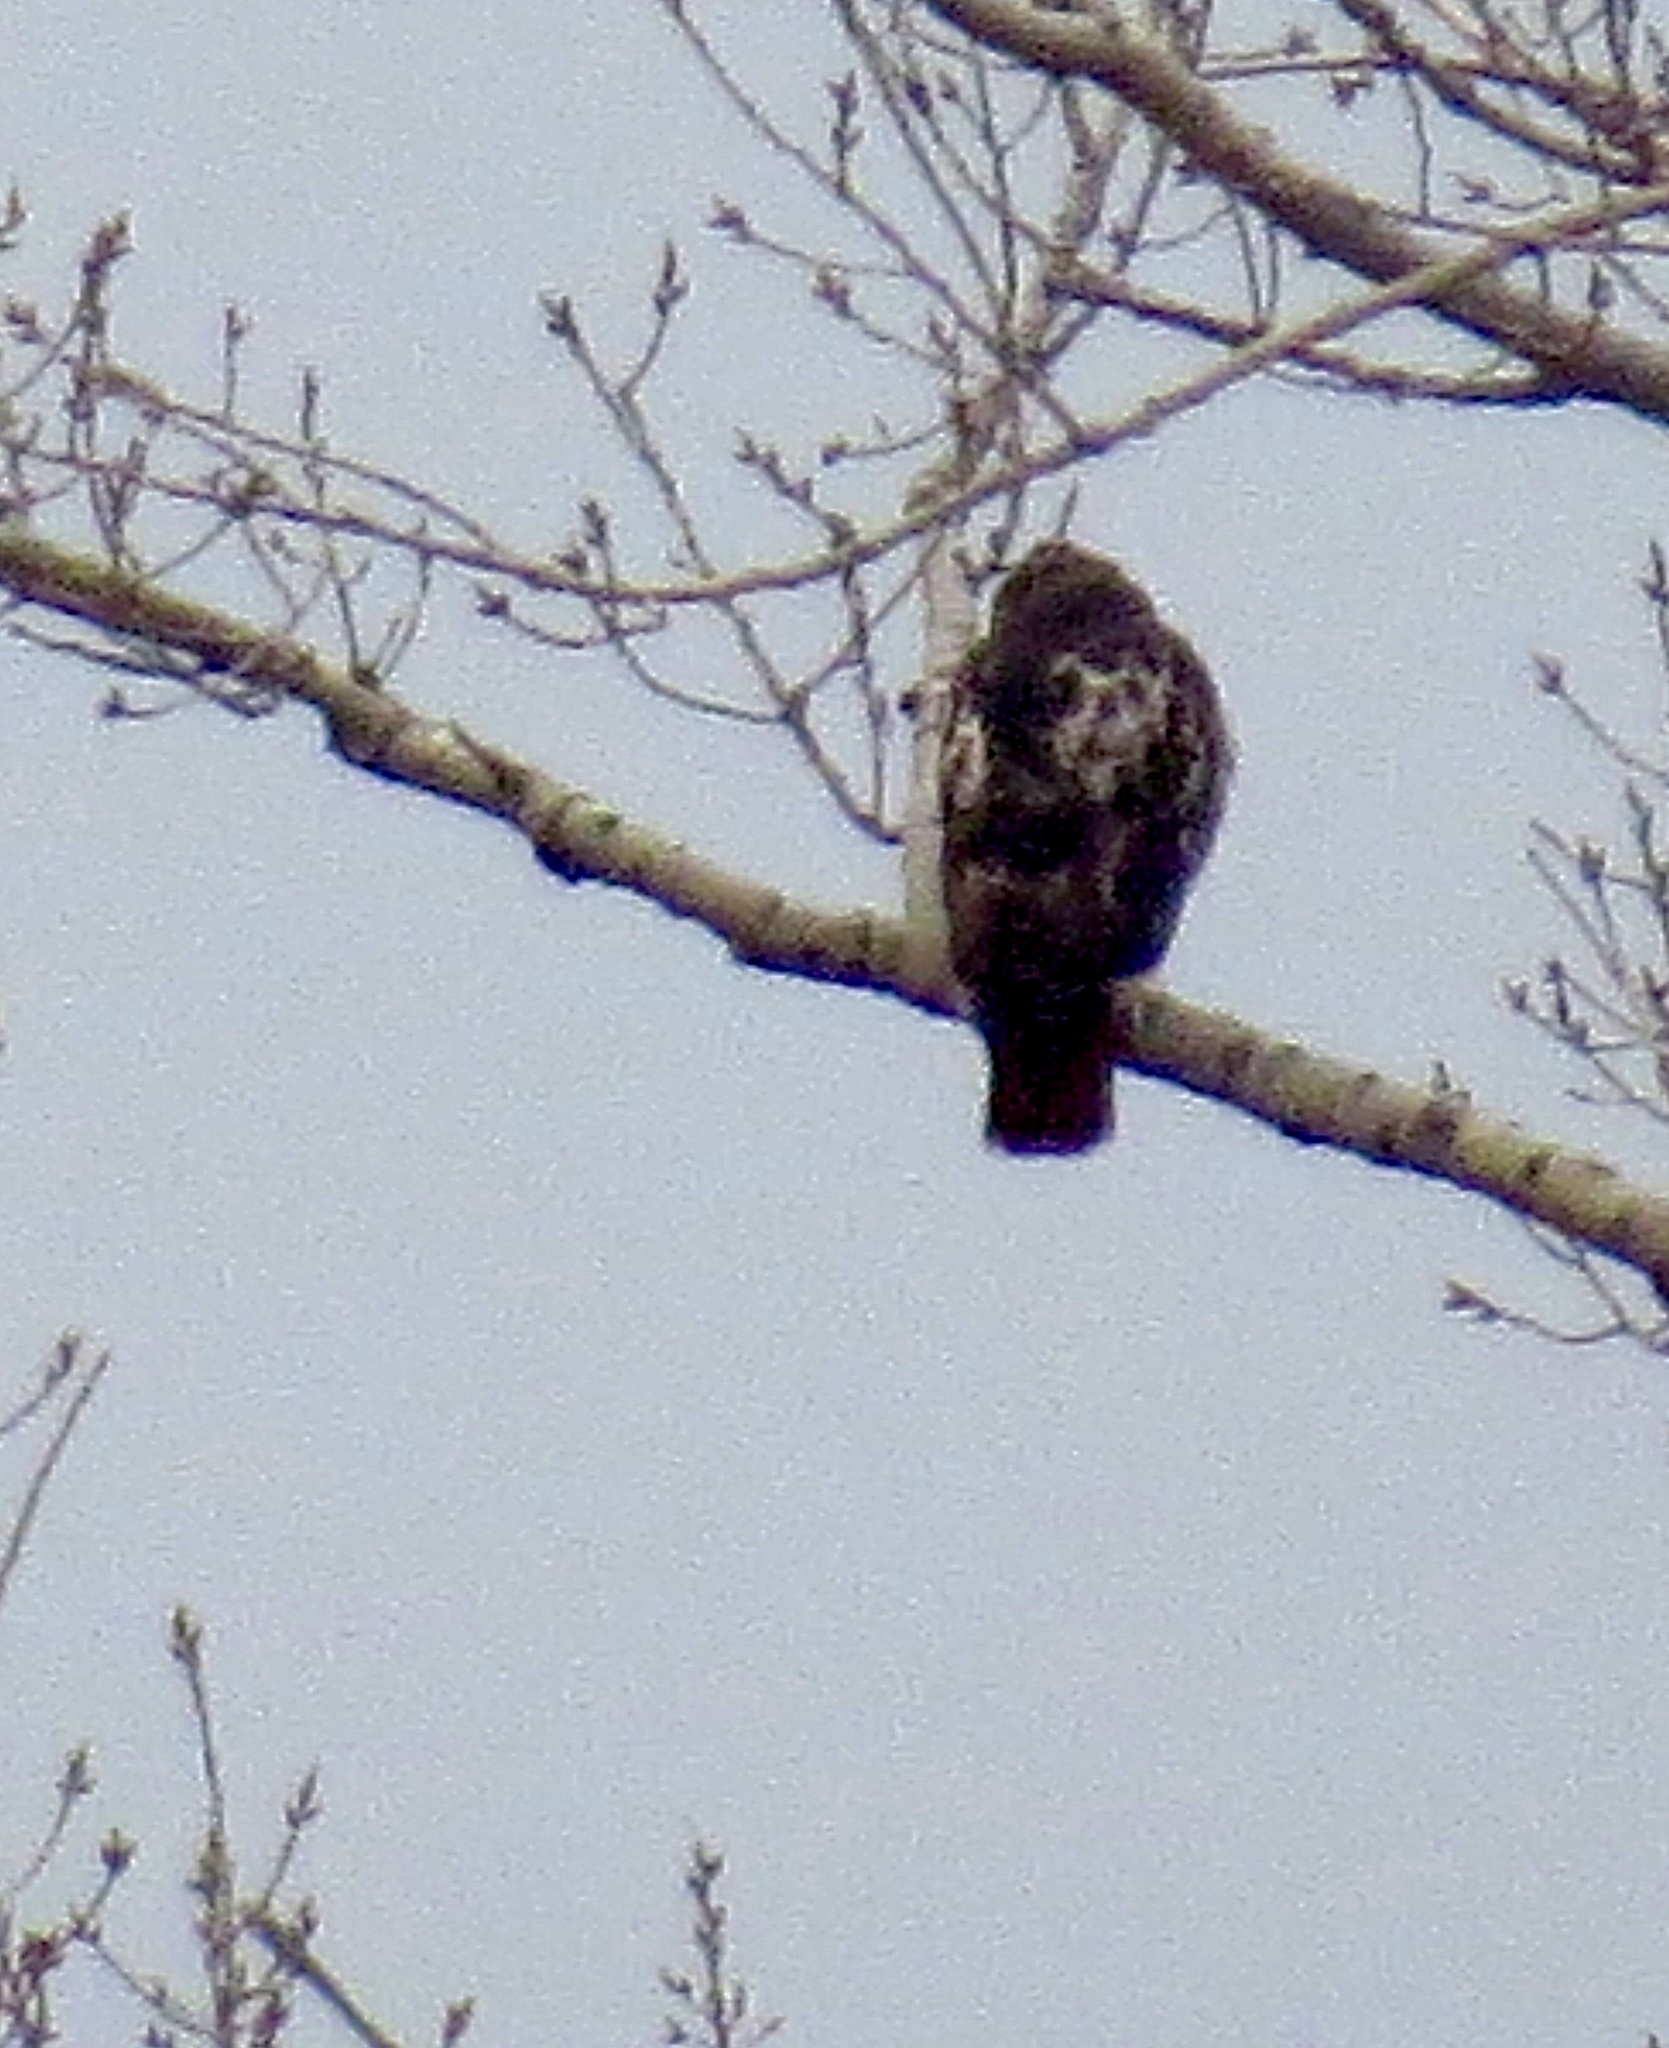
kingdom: Animalia
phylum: Chordata
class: Aves
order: Accipitriformes
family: Accipitridae
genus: Buteo
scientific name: Buteo jamaicensis
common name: Red-tailed hawk
